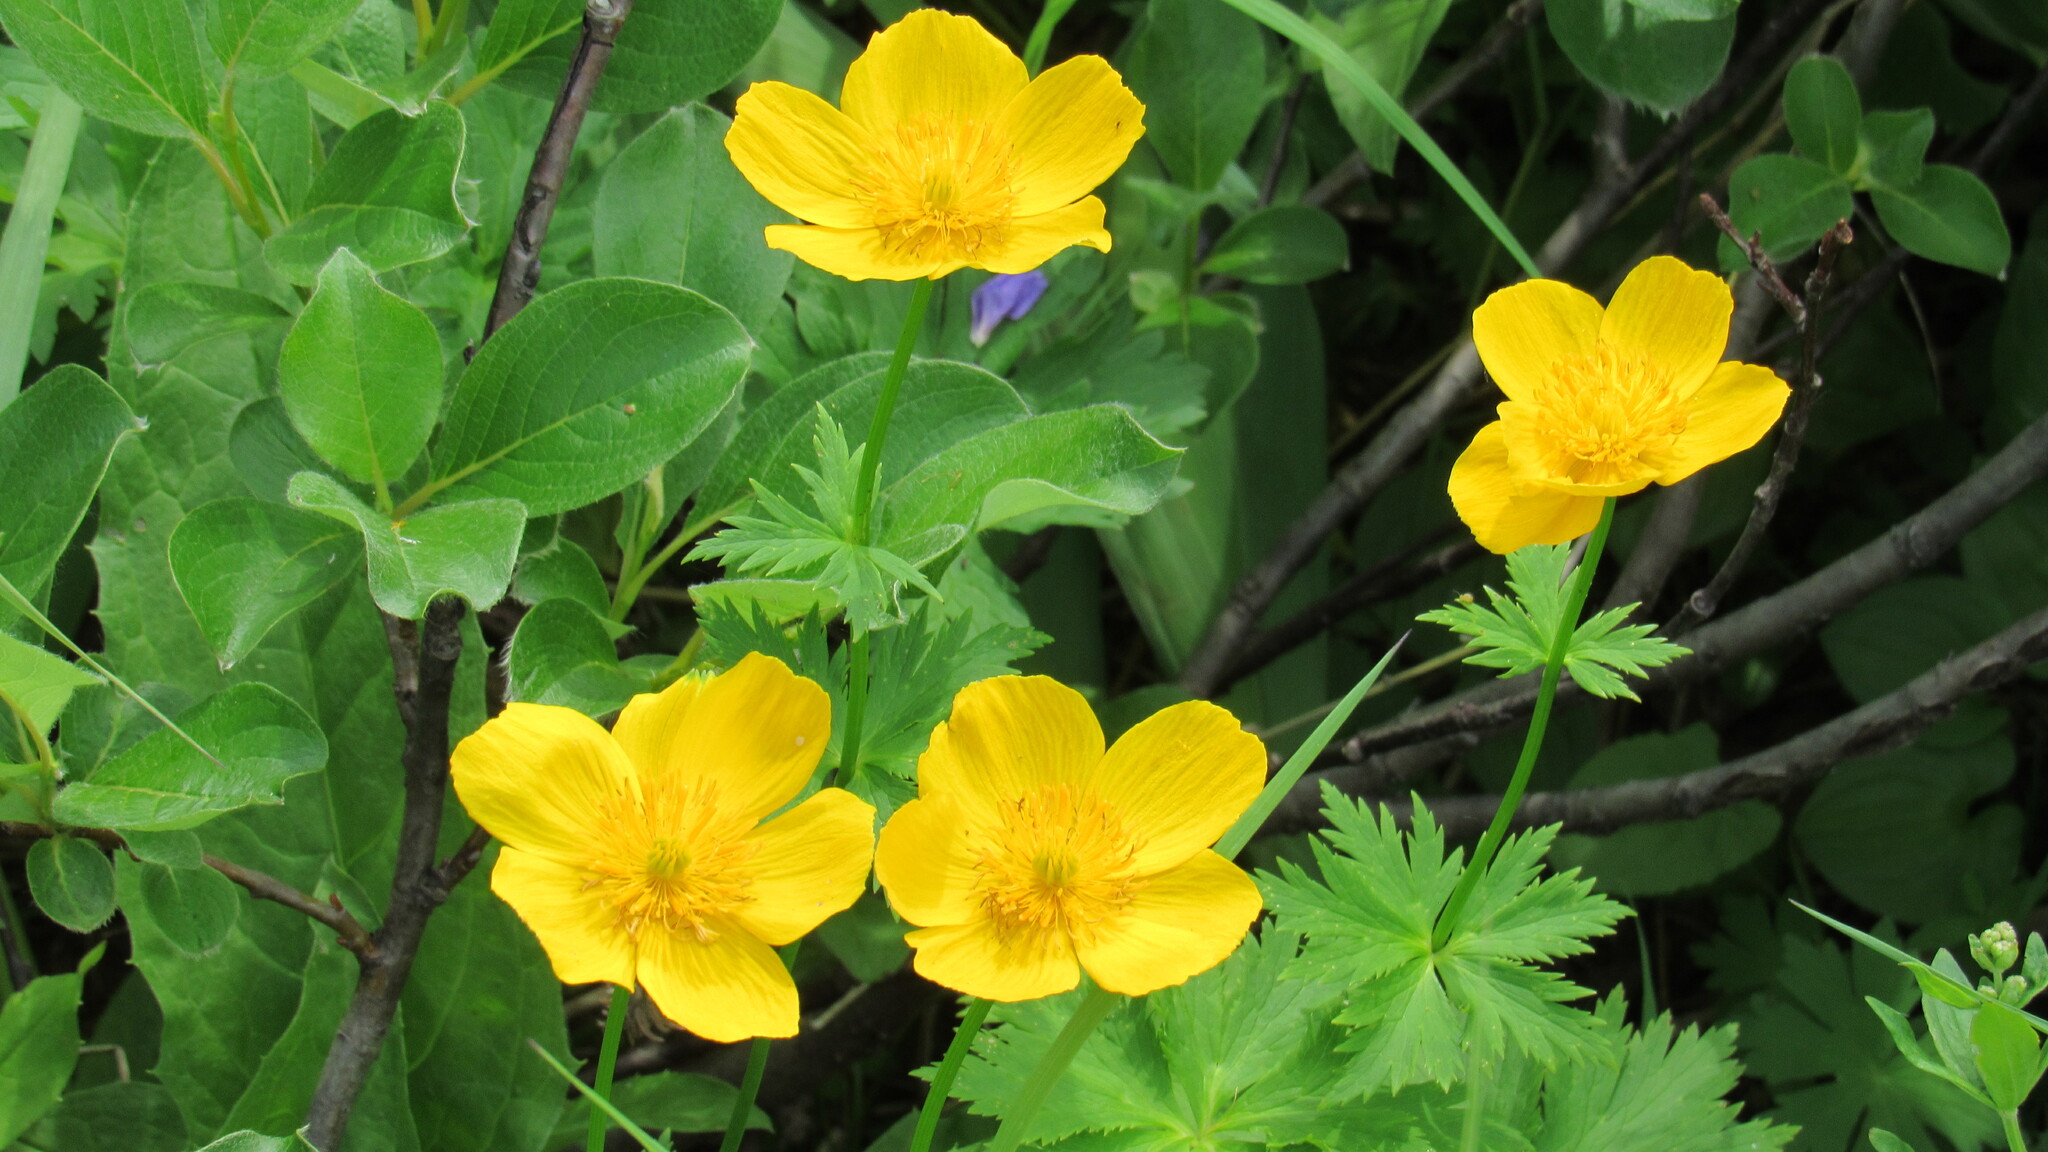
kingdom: Plantae
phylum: Tracheophyta
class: Magnoliopsida
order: Ranunculales
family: Ranunculaceae
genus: Trollius
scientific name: Trollius riederianus
